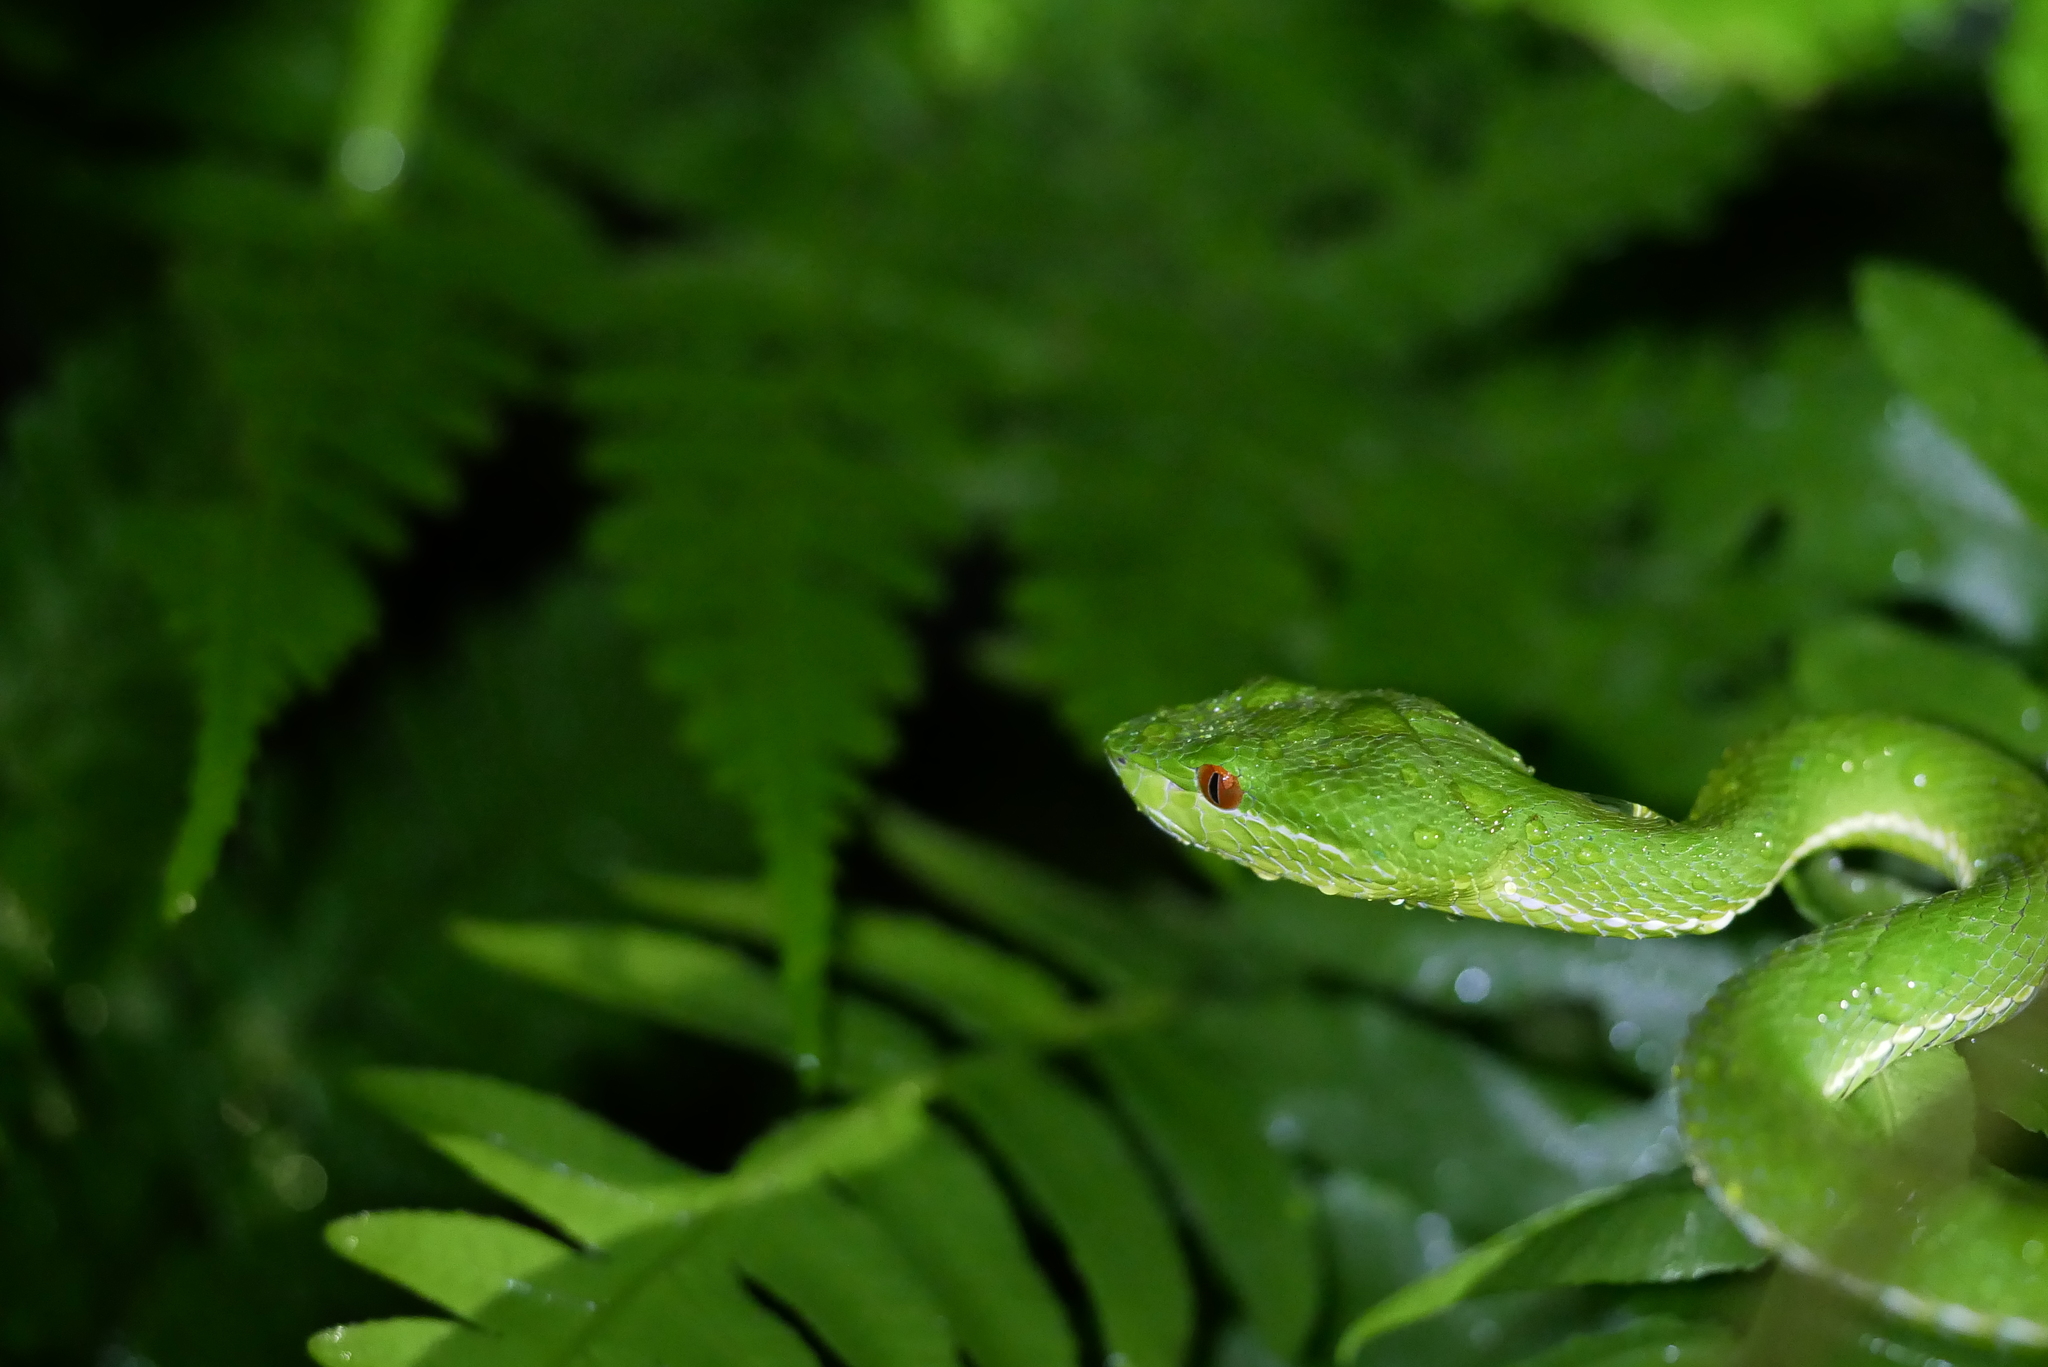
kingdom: Animalia
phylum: Chordata
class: Squamata
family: Viperidae
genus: Trimeresurus
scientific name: Trimeresurus stejnegeri
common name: Chen’s bamboo pit viper
